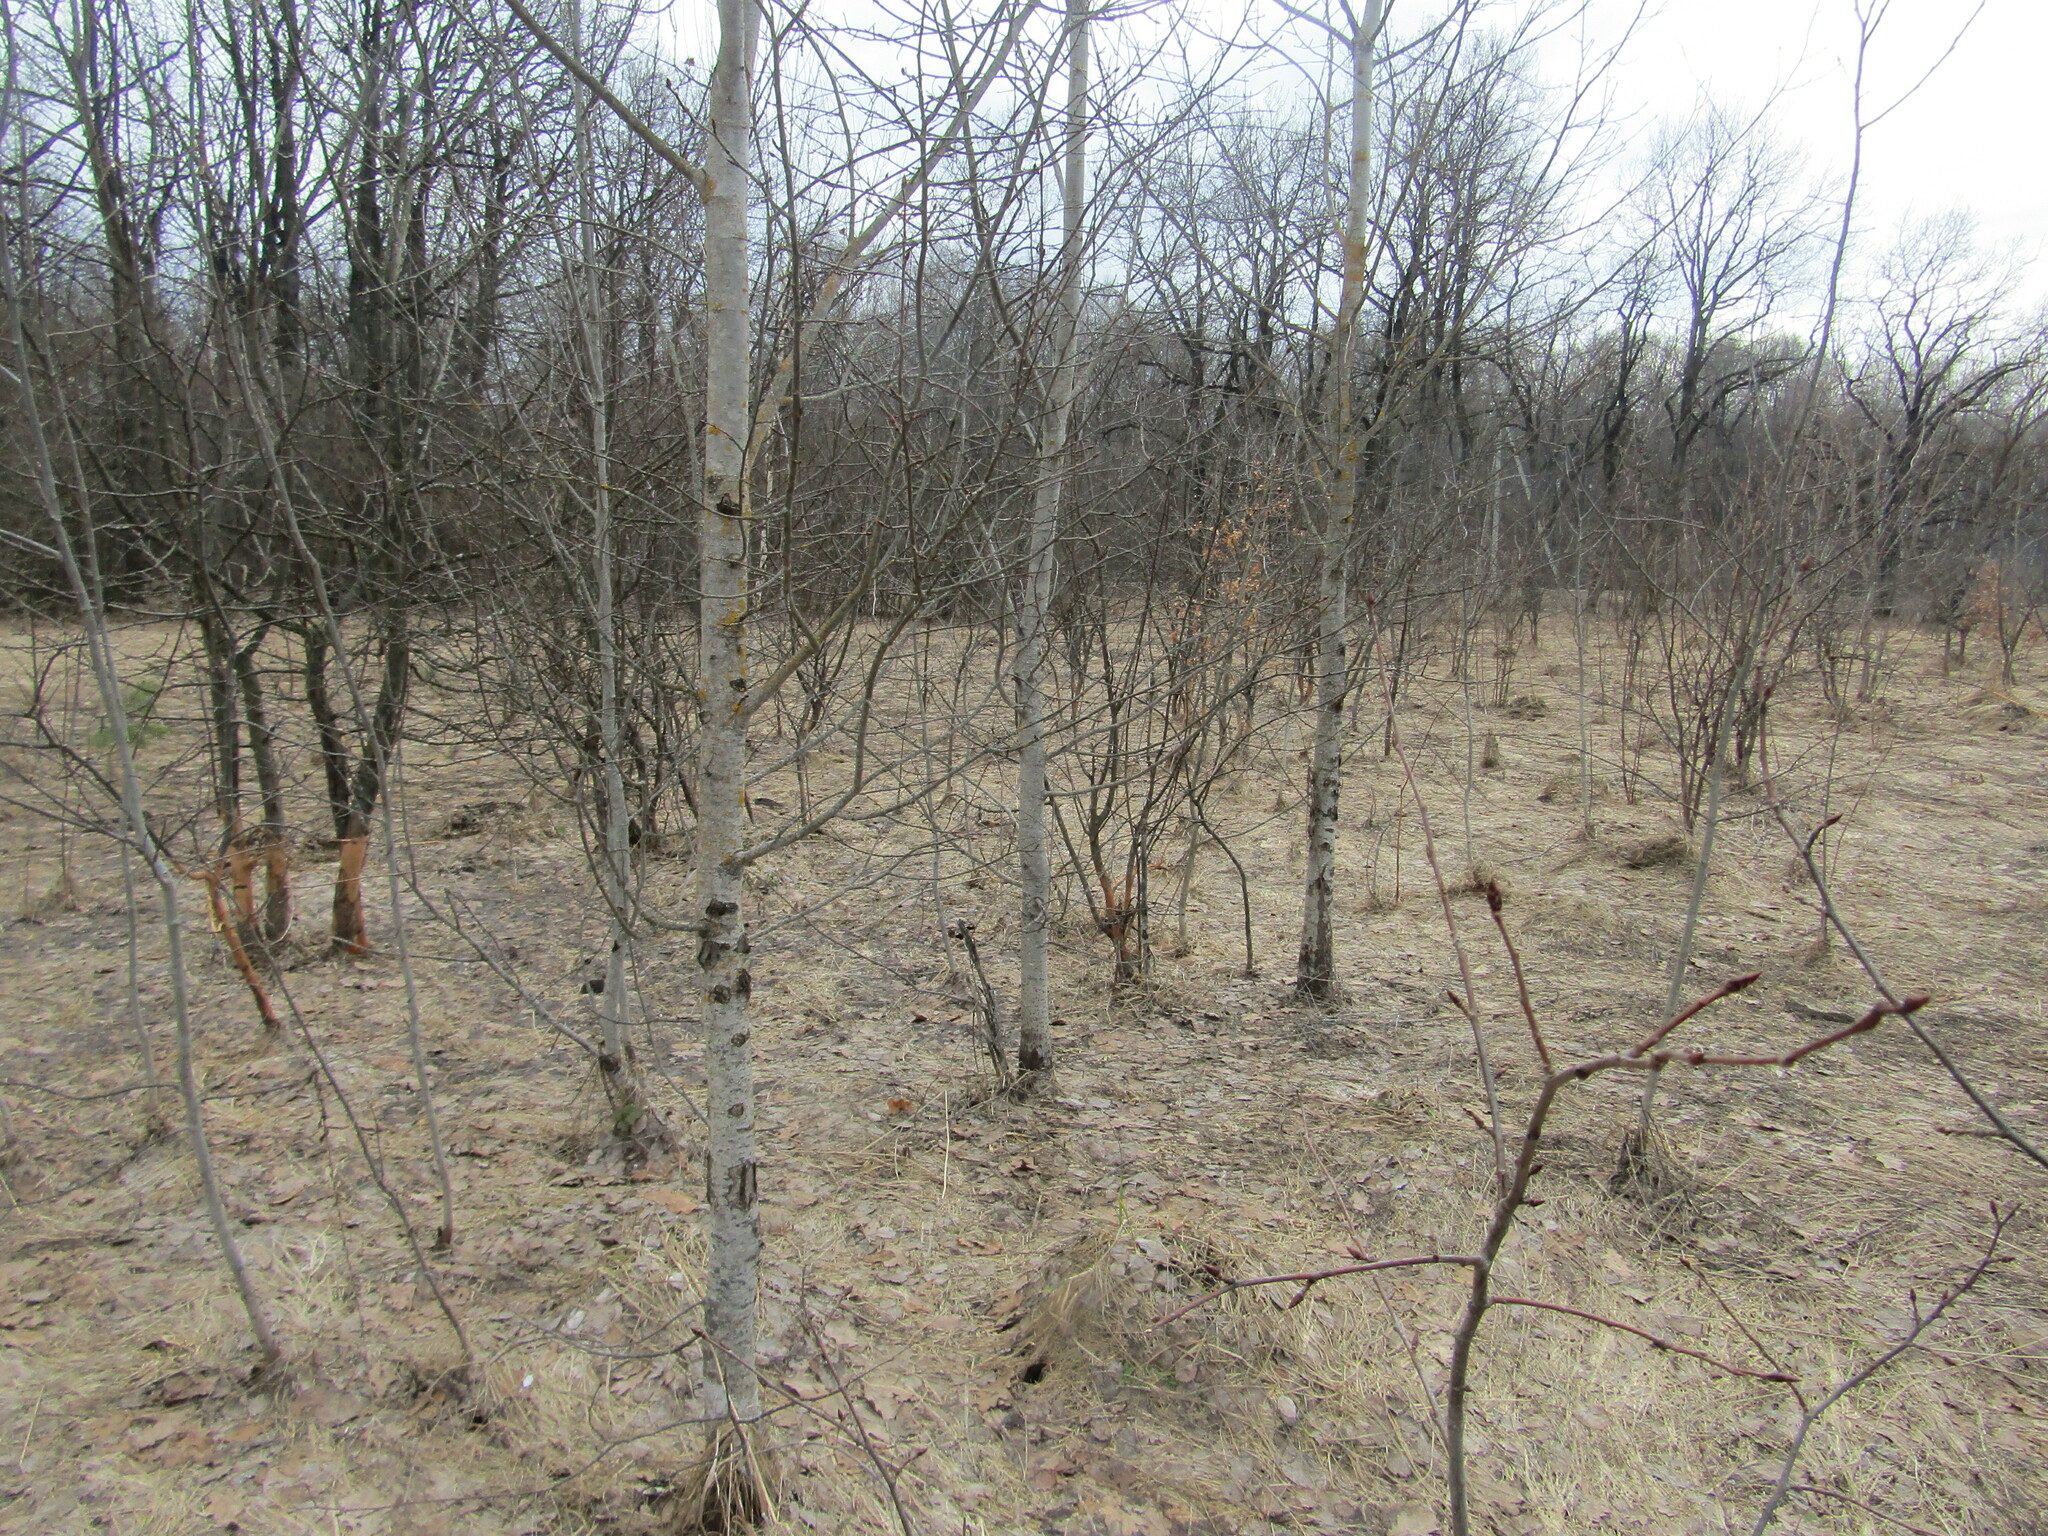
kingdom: Plantae
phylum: Tracheophyta
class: Magnoliopsida
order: Malpighiales
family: Salicaceae
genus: Populus
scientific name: Populus tremula
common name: European aspen
